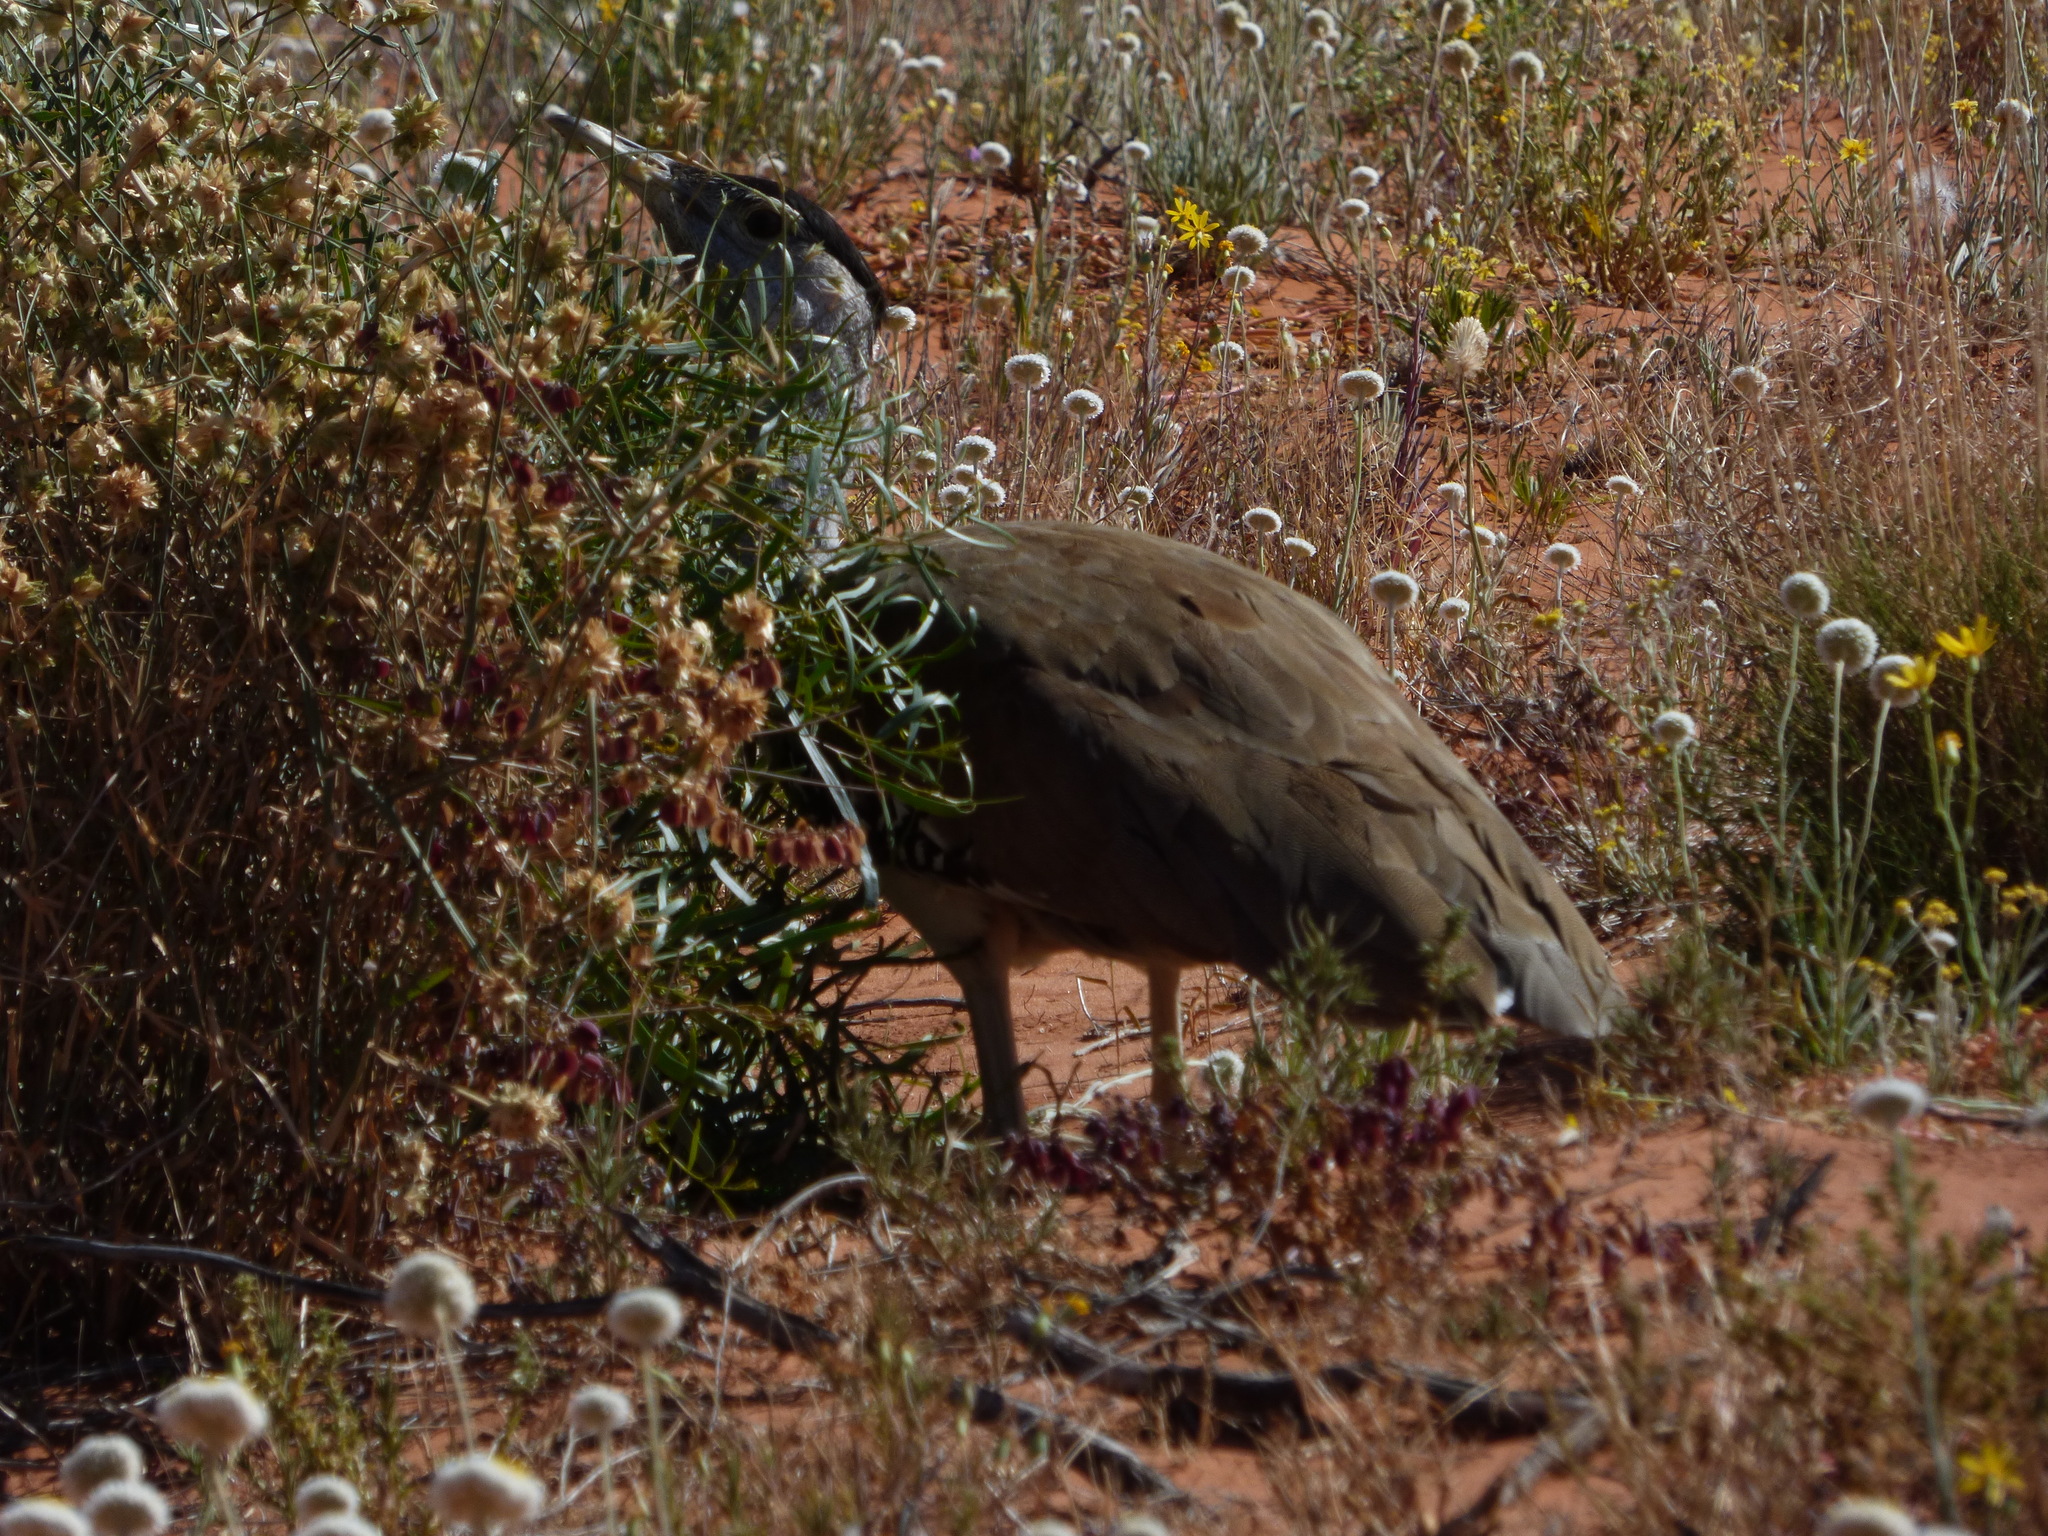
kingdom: Animalia
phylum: Chordata
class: Aves
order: Otidiformes
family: Otididae
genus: Ardeotis
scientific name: Ardeotis australis
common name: Australian bustard
